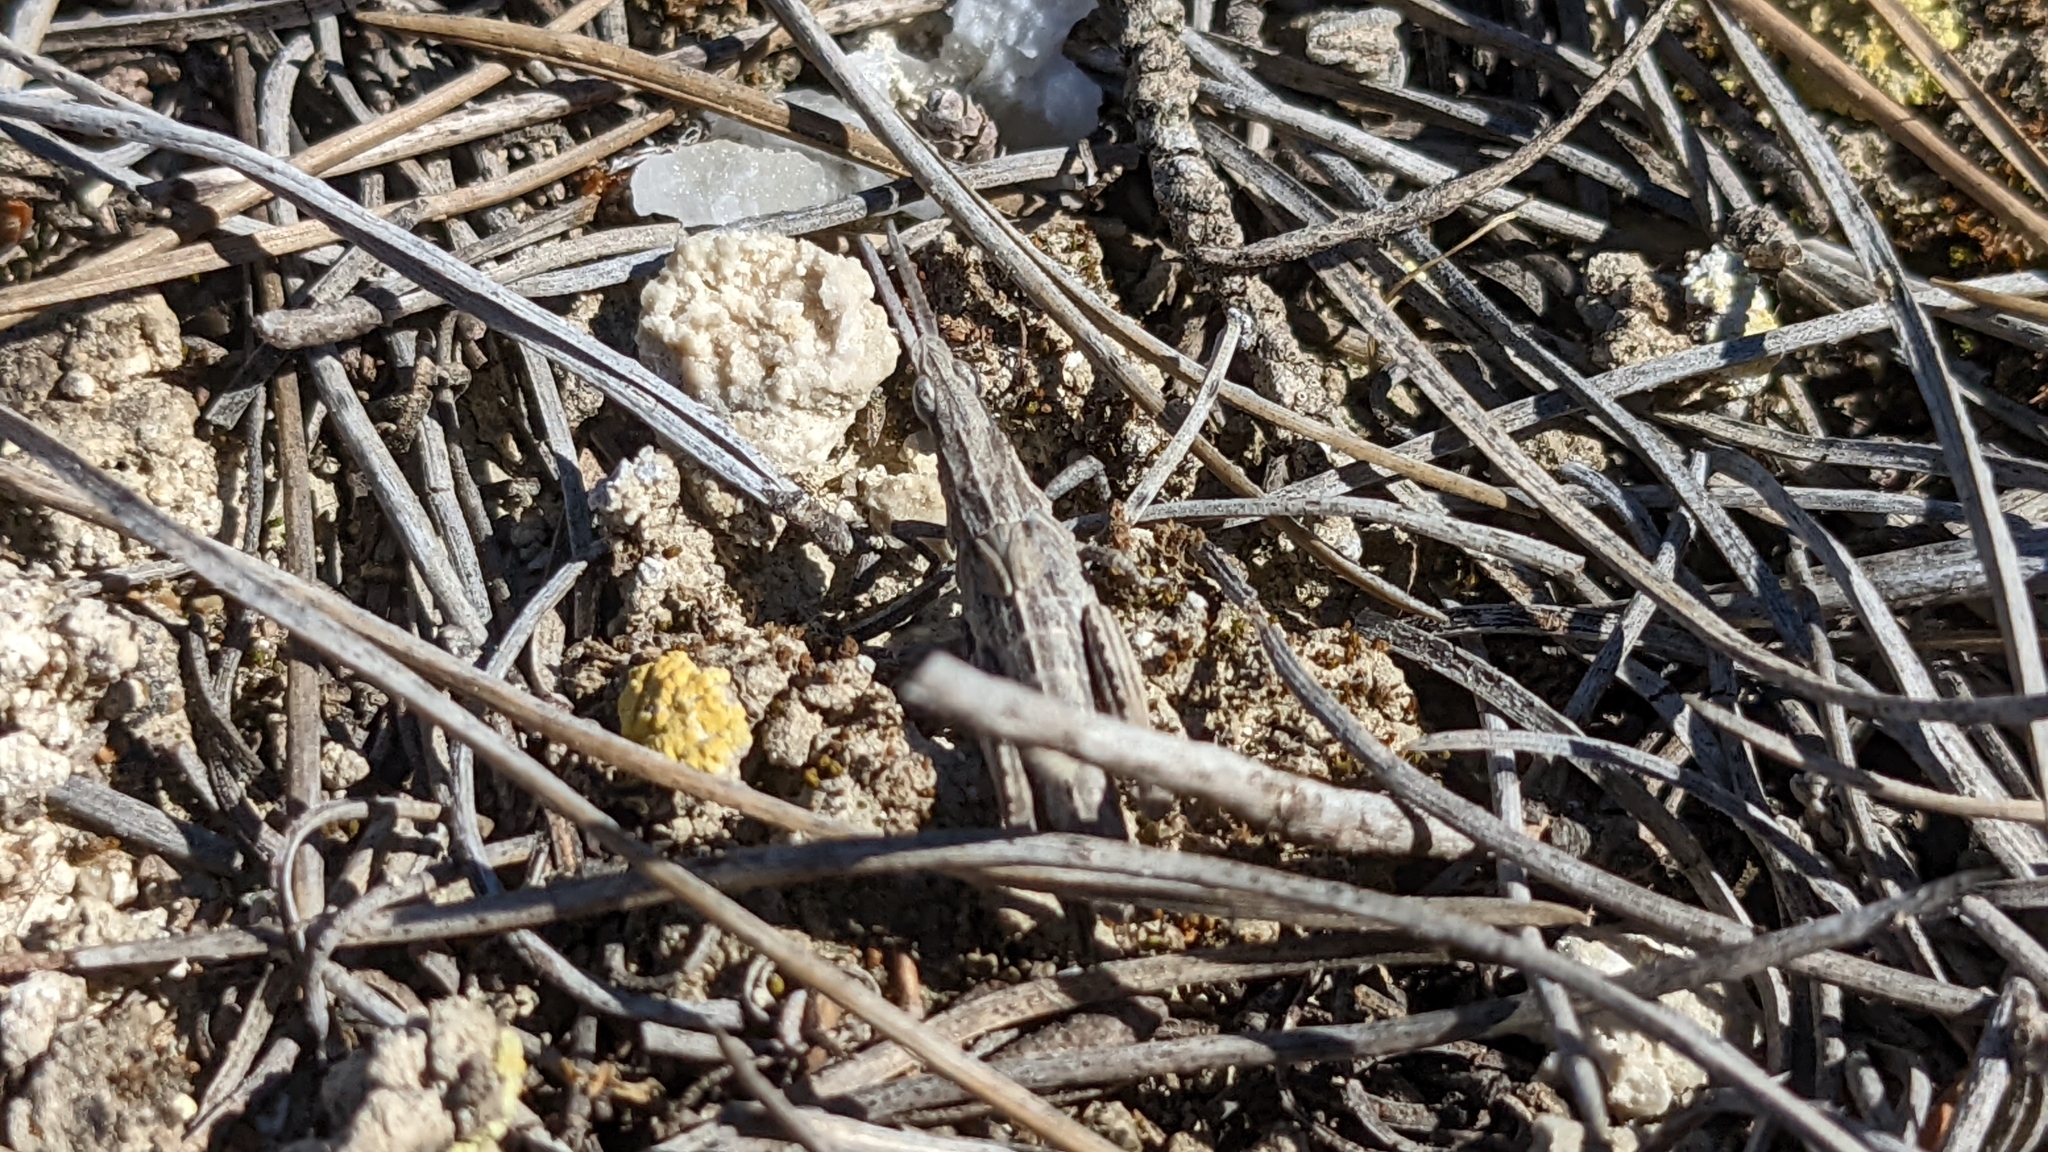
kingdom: Animalia
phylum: Arthropoda
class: Insecta
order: Orthoptera
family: Pyrgomorphidae
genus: Pyrgomorpha
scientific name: Pyrgomorpha conica
